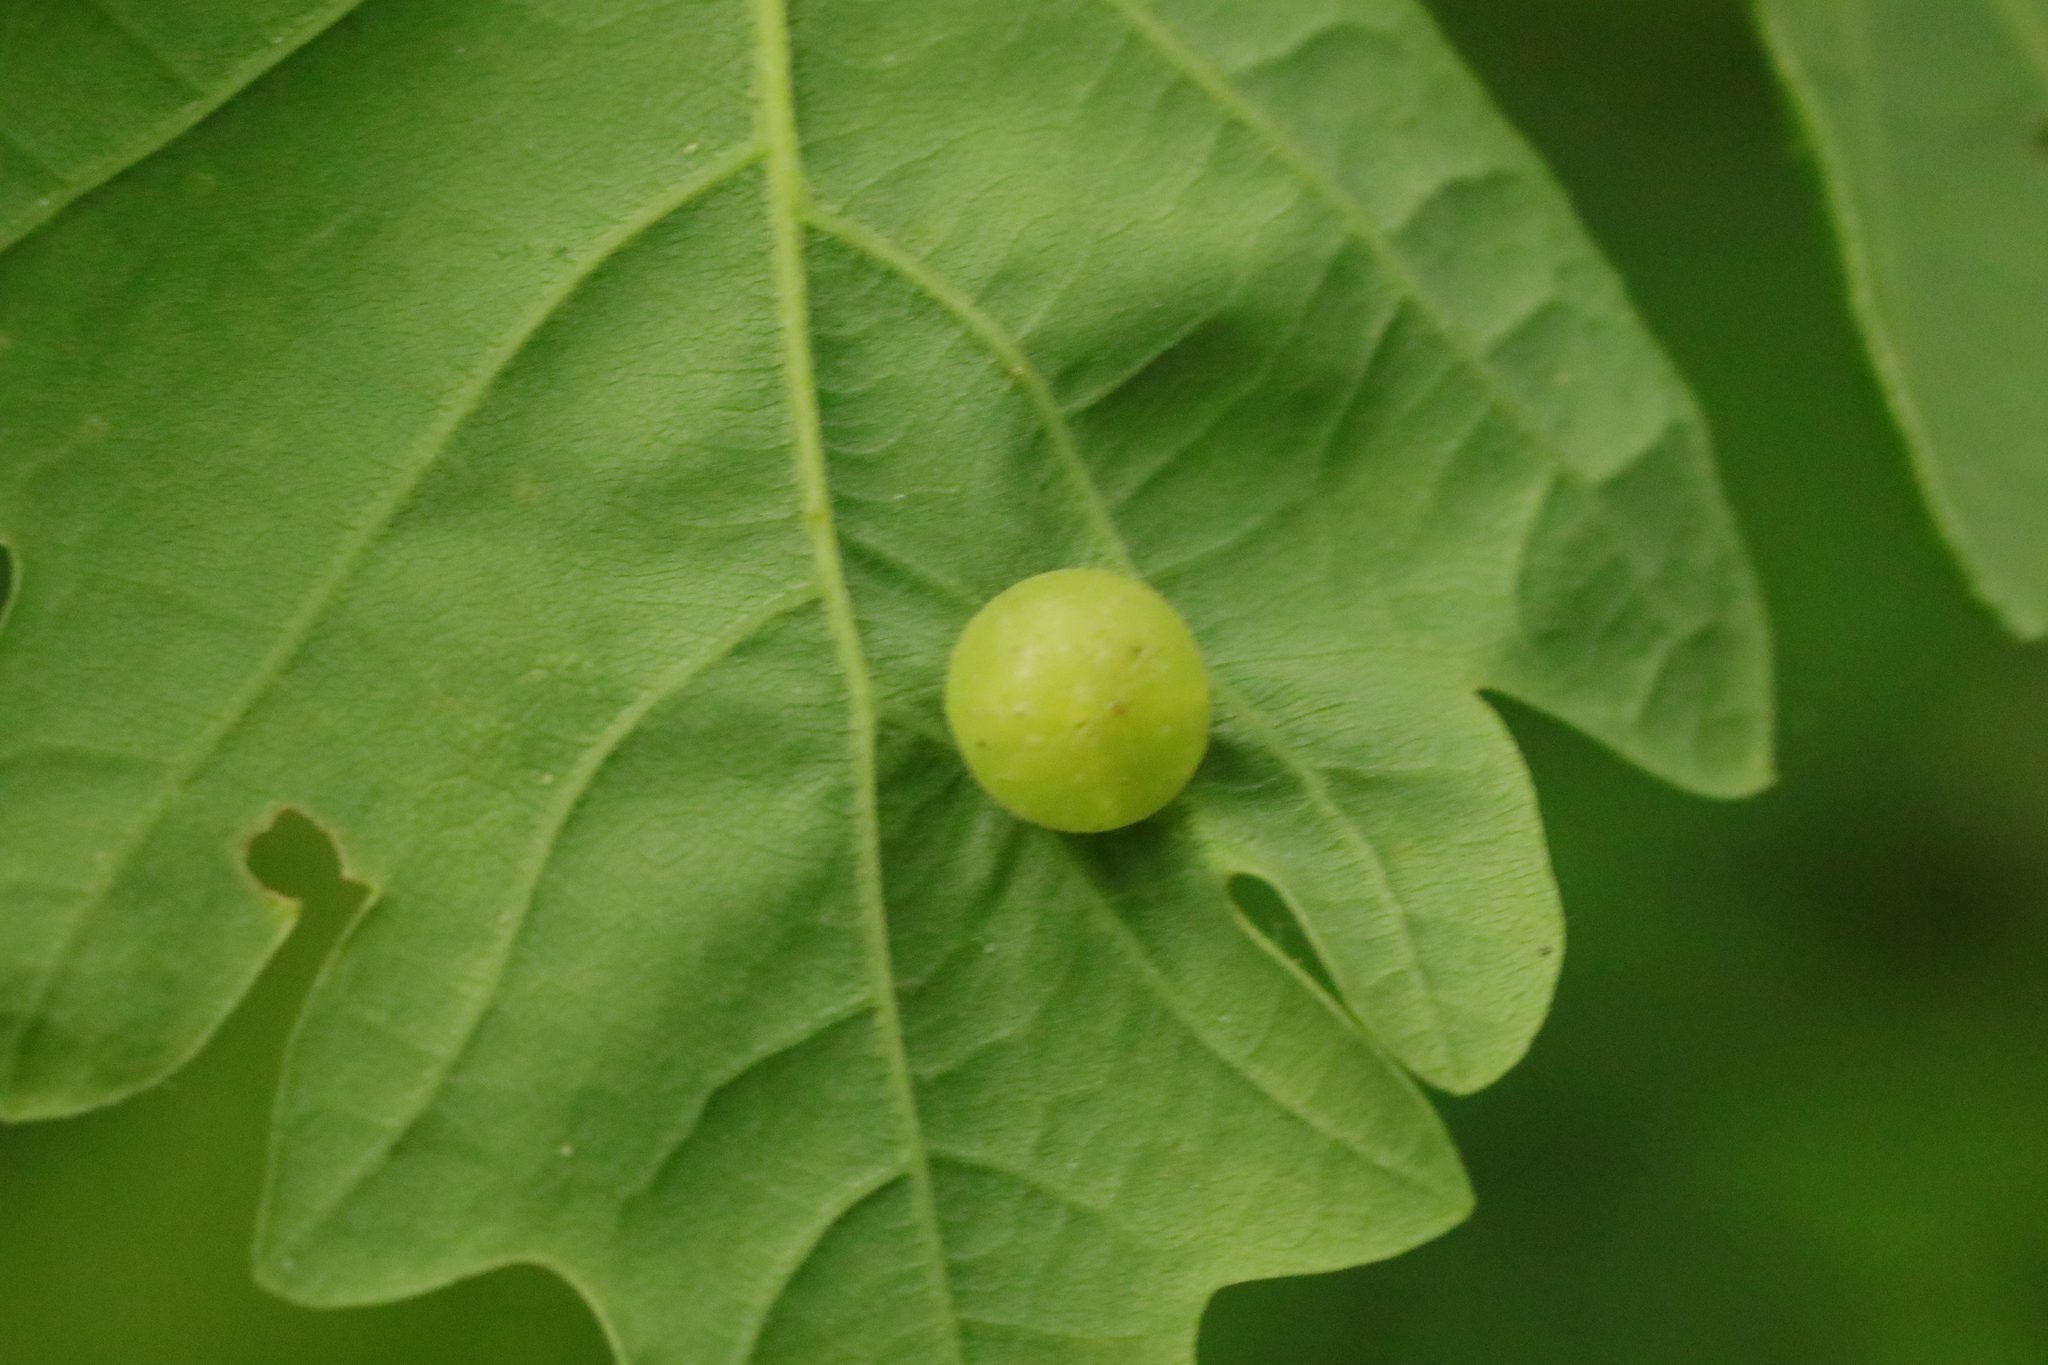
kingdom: Animalia
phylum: Arthropoda
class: Insecta
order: Hymenoptera
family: Cynipidae
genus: Neuroterus
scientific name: Neuroterus quercusbaccarum
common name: Common spangle gall
